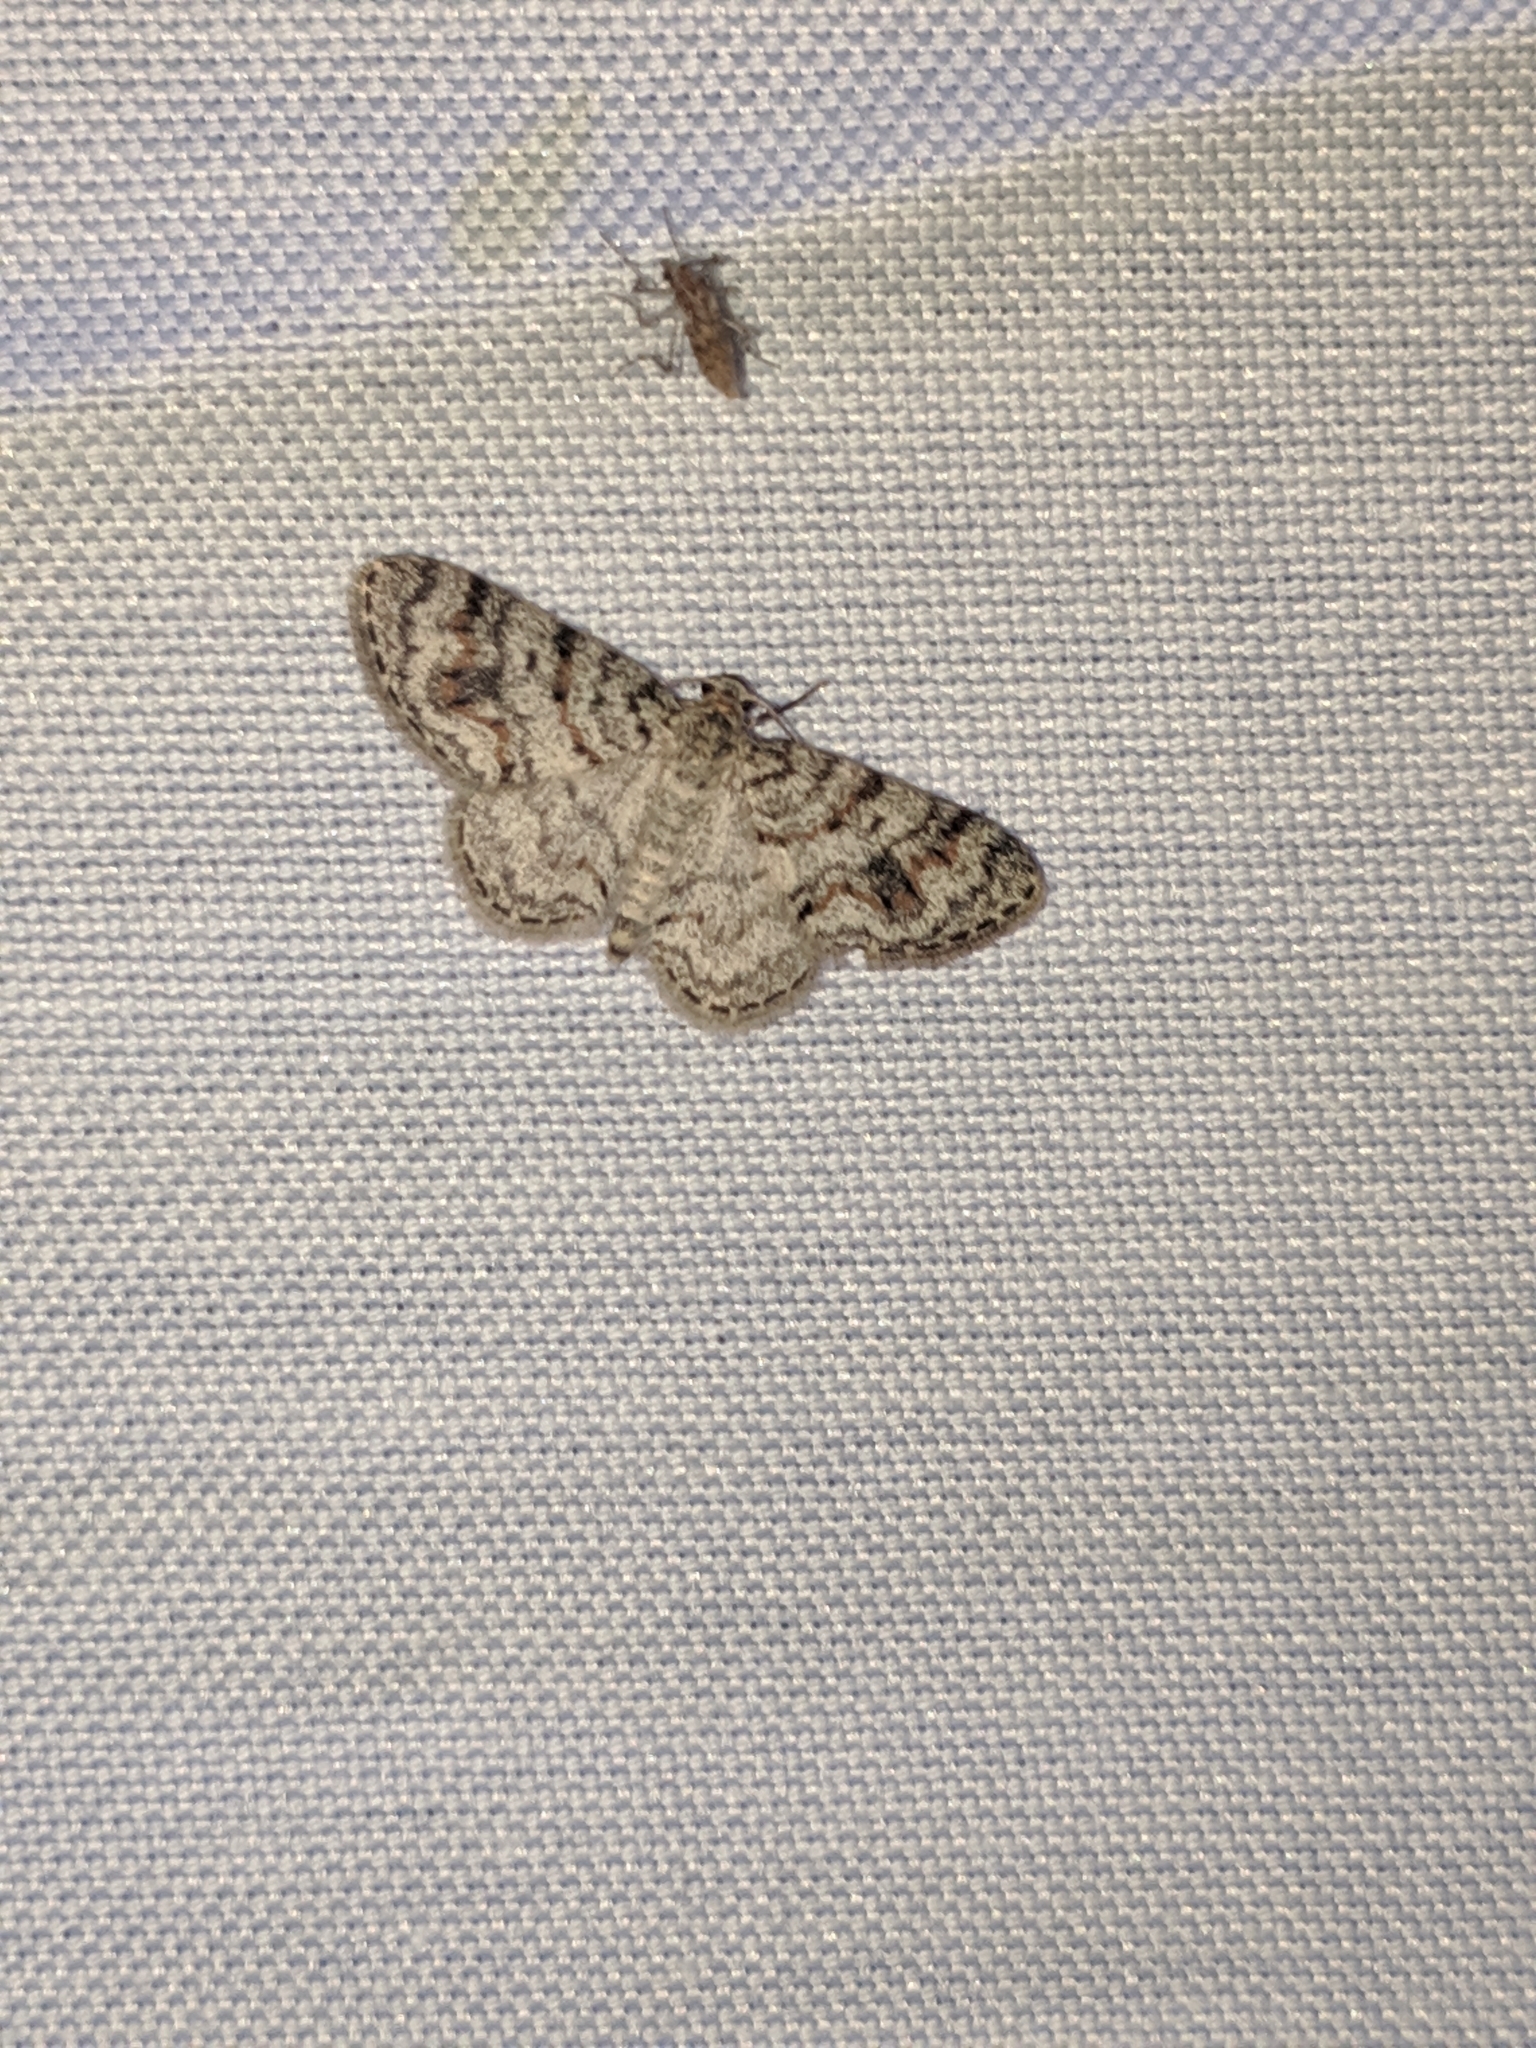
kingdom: Animalia
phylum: Arthropoda
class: Insecta
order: Lepidoptera
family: Geometridae
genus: Hydrelia
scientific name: Hydrelia inornata
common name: Unadorned carpet moth
